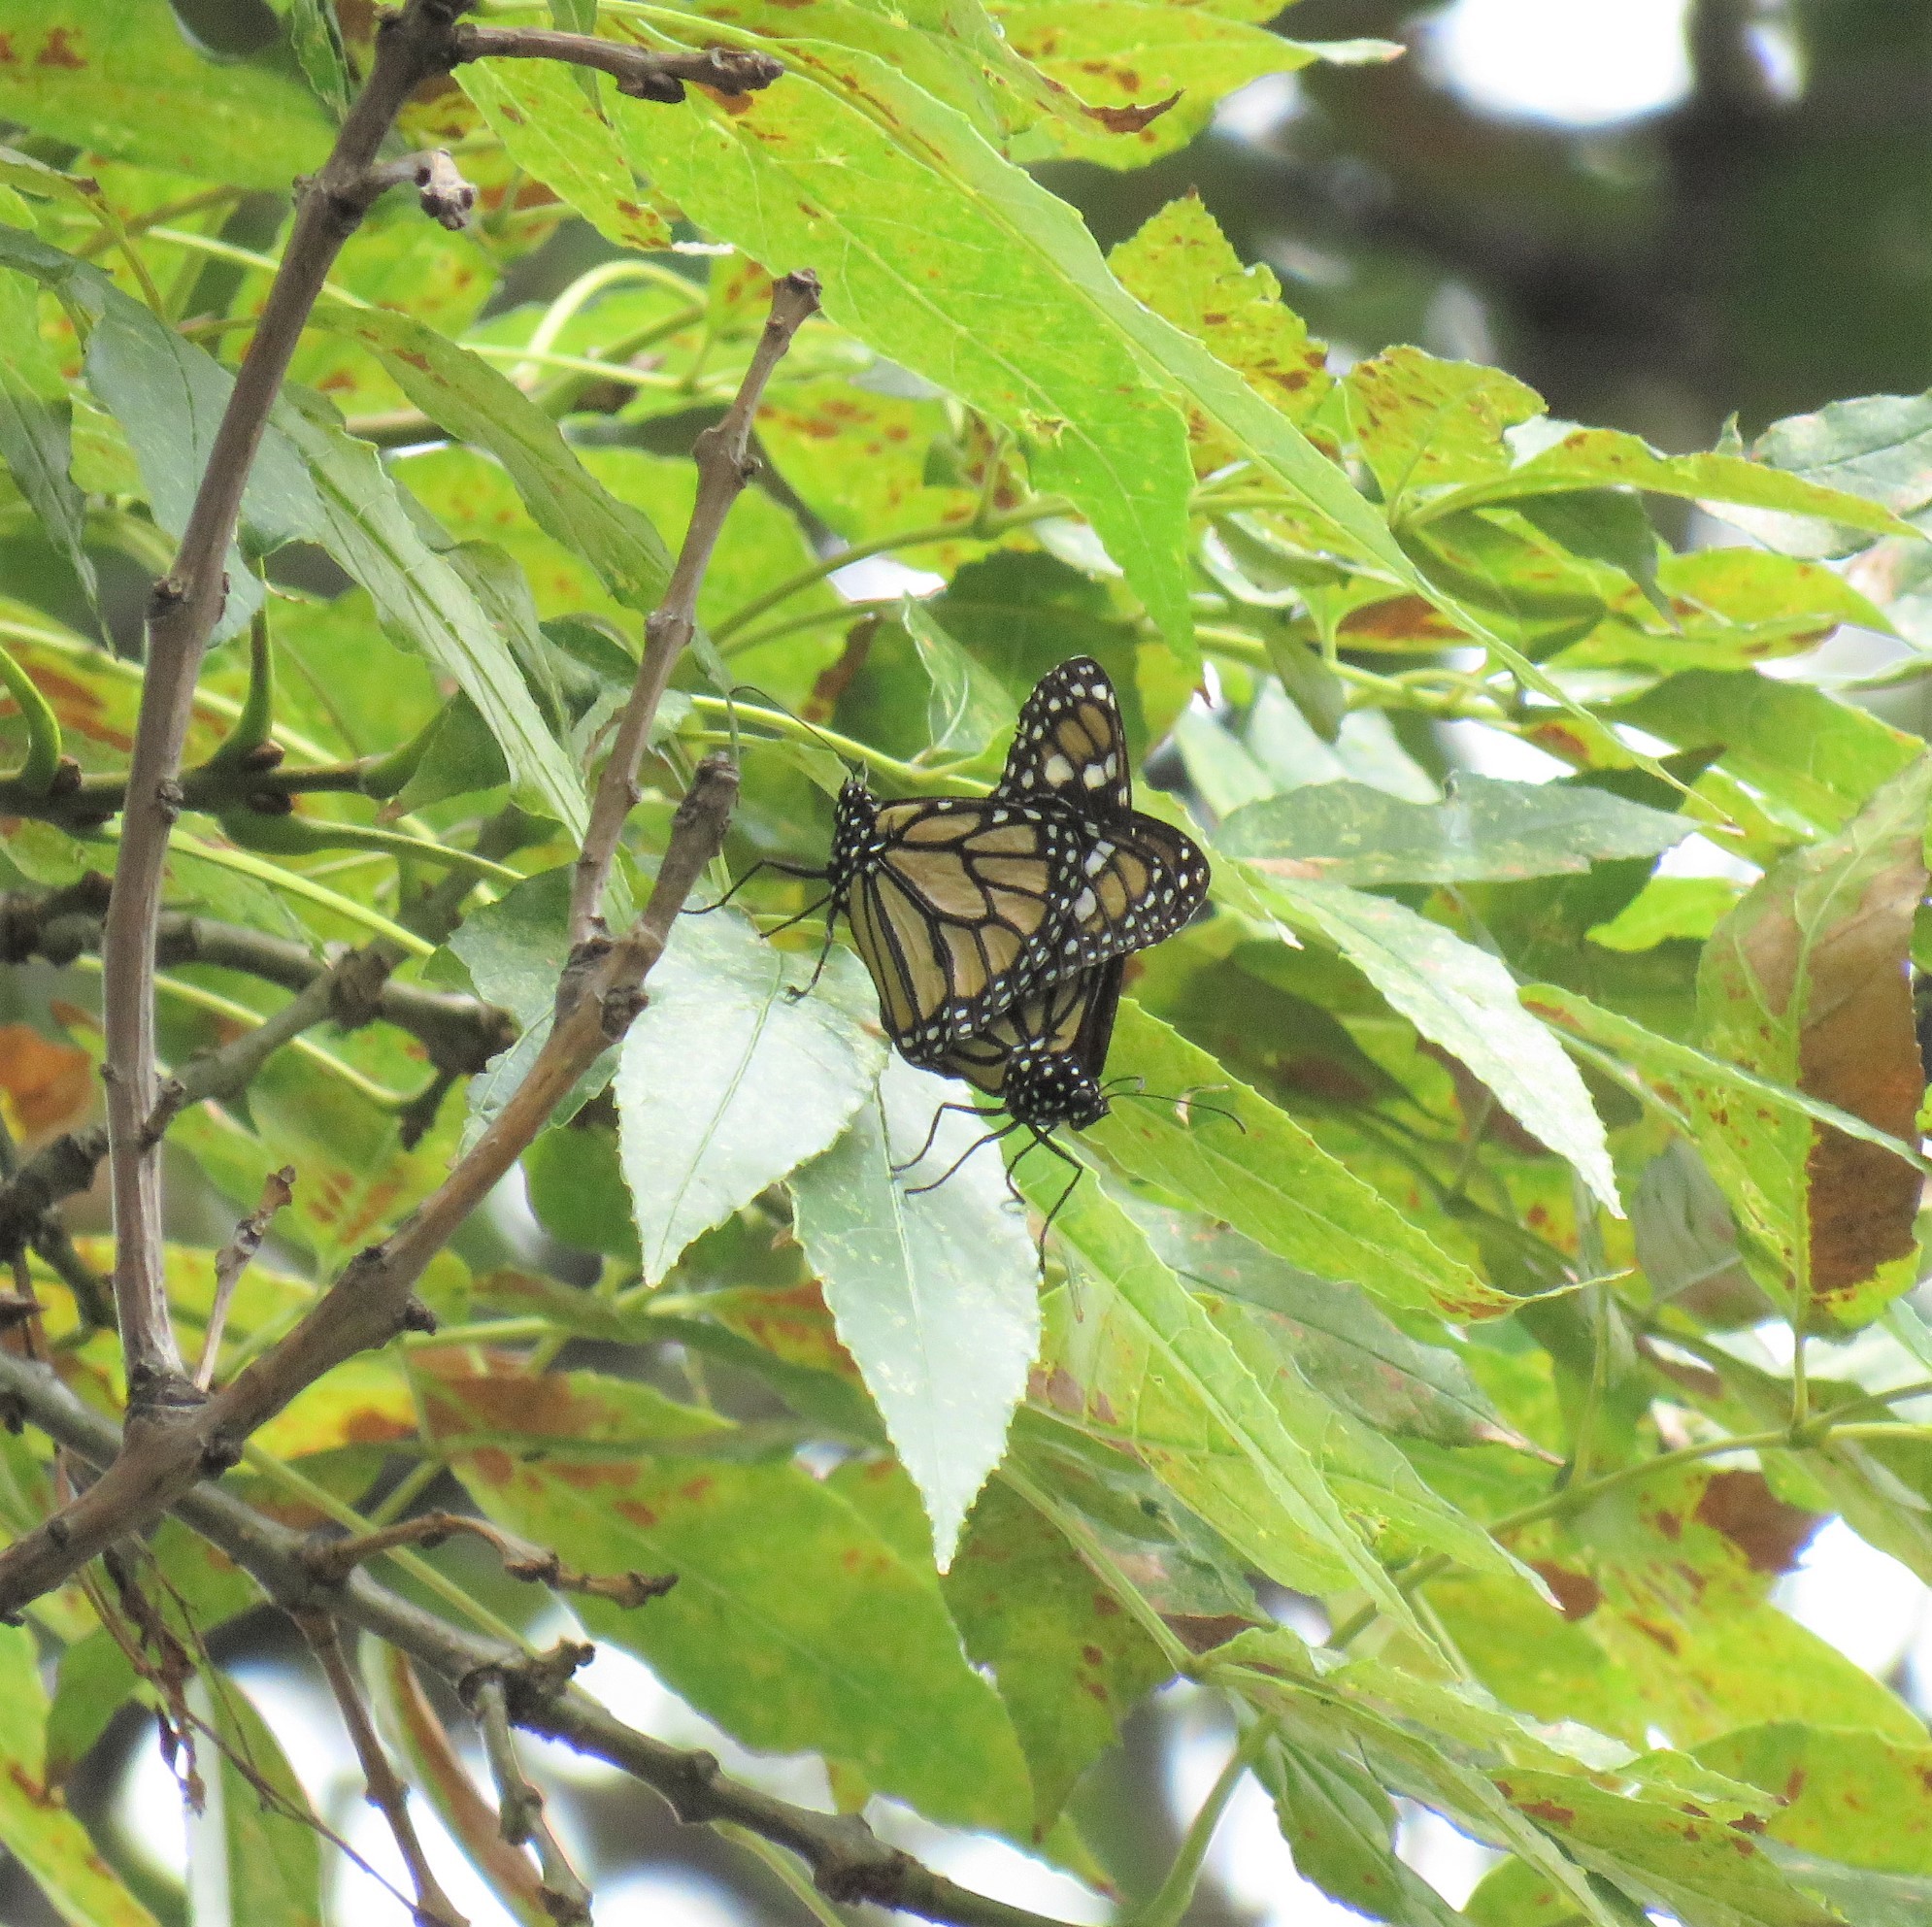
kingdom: Animalia
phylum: Arthropoda
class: Insecta
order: Lepidoptera
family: Nymphalidae
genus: Danaus
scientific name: Danaus plexippus
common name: Monarch
